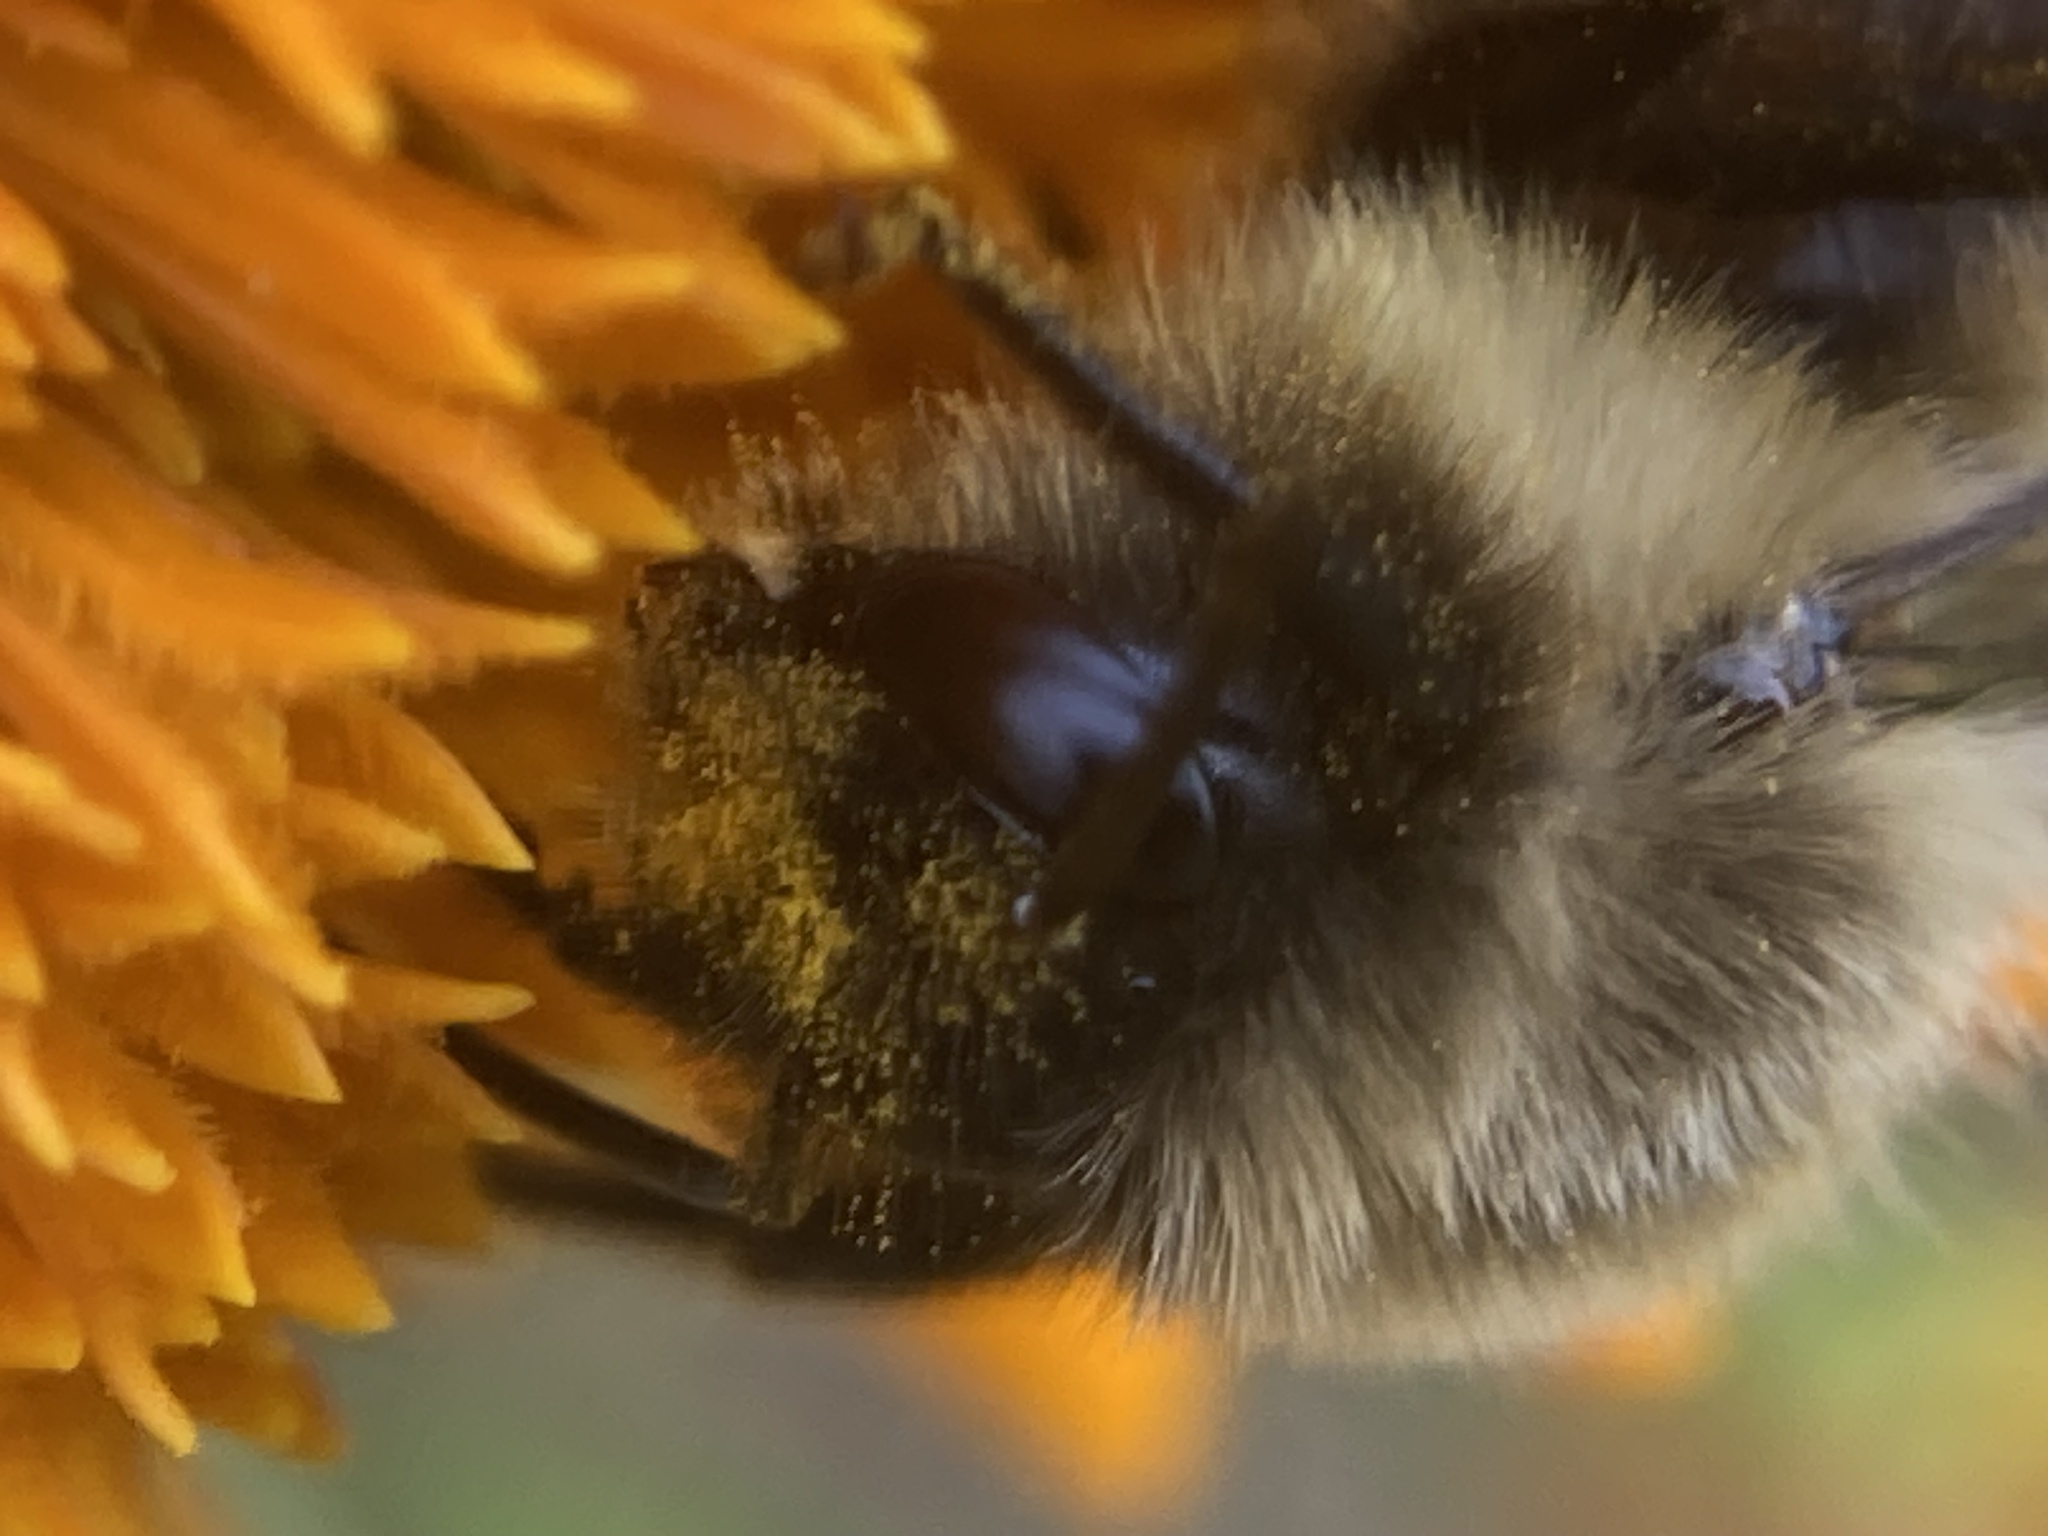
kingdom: Animalia
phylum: Arthropoda
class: Insecta
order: Hymenoptera
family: Apidae
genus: Bombus
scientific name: Bombus impatiens
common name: Common eastern bumble bee
